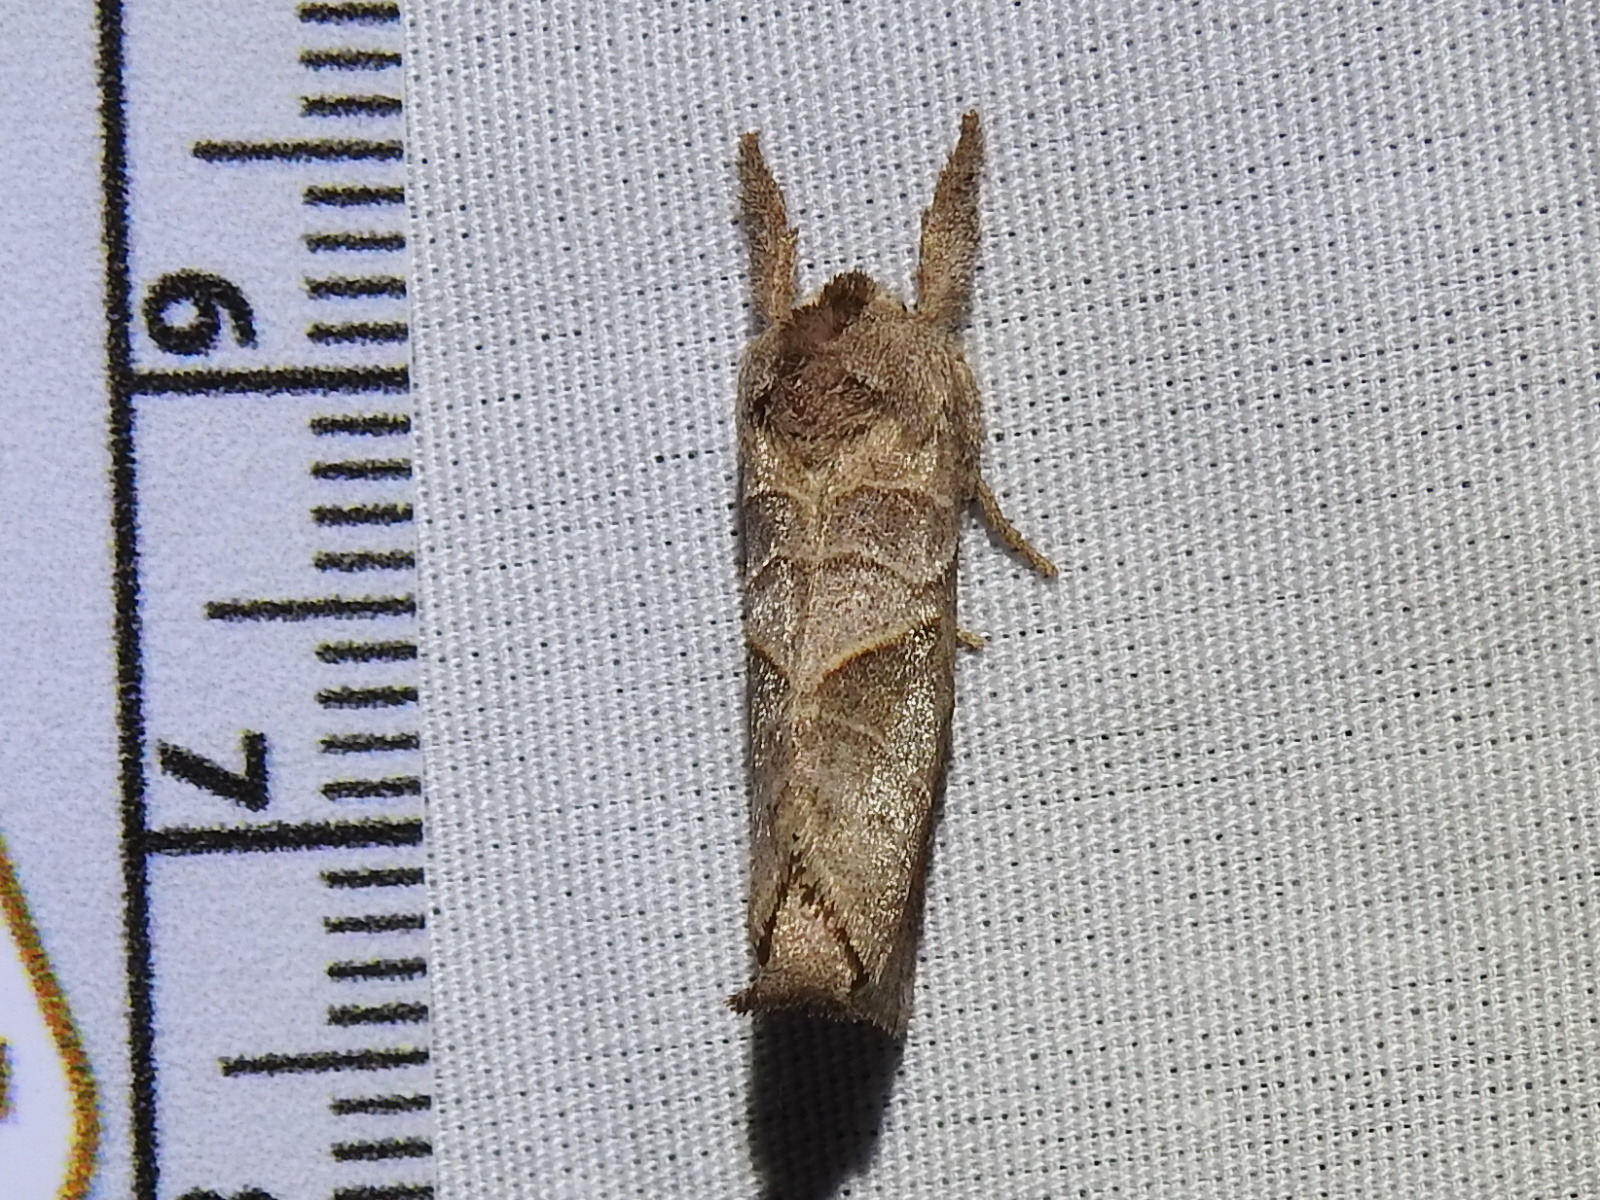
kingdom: Animalia
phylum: Arthropoda
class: Insecta
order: Lepidoptera
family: Notodontidae
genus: Clostera
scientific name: Clostera inclusa
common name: Angle-lined prominent
